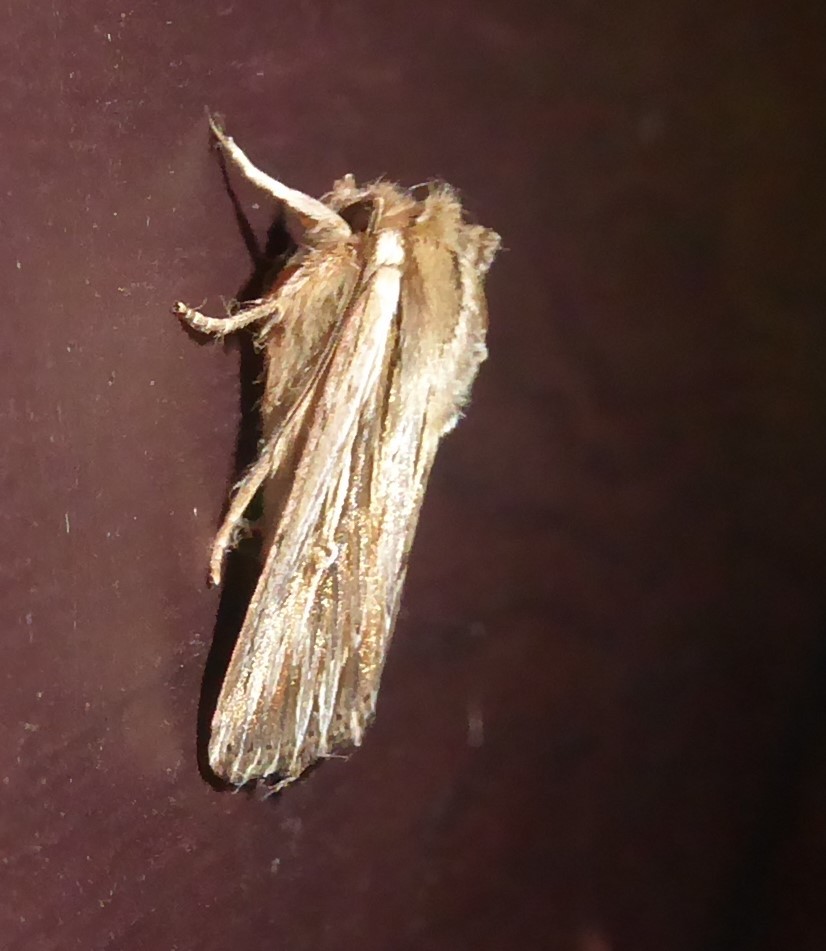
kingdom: Animalia
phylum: Arthropoda
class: Insecta
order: Lepidoptera
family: Noctuidae
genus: Persectania
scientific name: Persectania aversa
